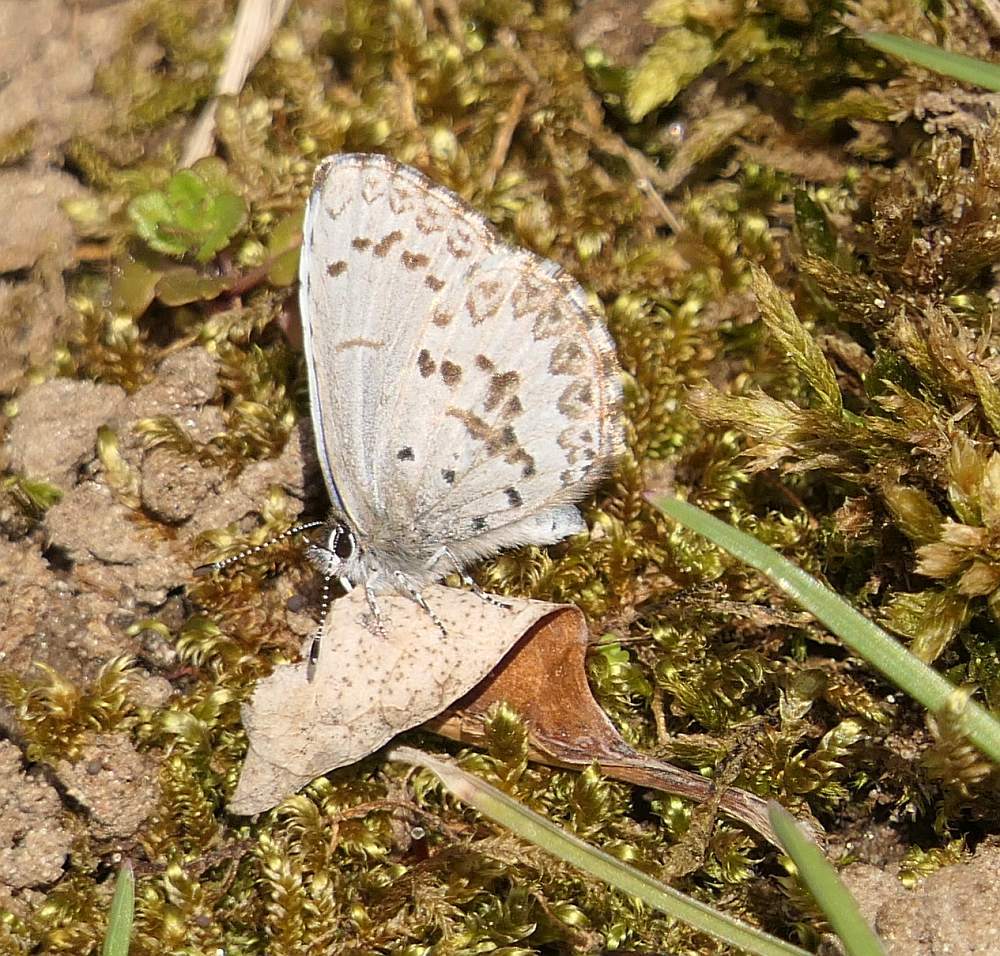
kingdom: Animalia
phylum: Arthropoda
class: Insecta
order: Lepidoptera
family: Lycaenidae
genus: Celastrina
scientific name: Celastrina lucia
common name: Lucia azure
